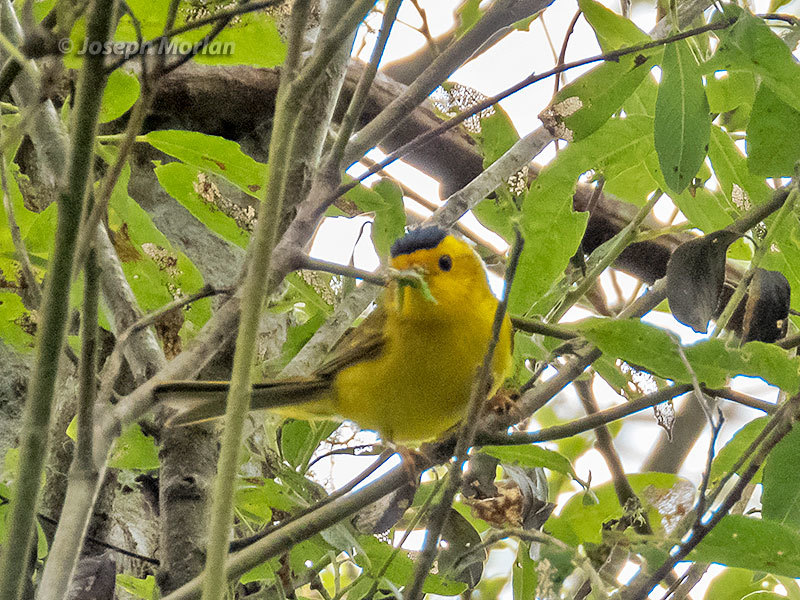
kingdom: Animalia
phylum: Chordata
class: Aves
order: Passeriformes
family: Parulidae
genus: Cardellina
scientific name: Cardellina pusilla
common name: Wilson's warbler
